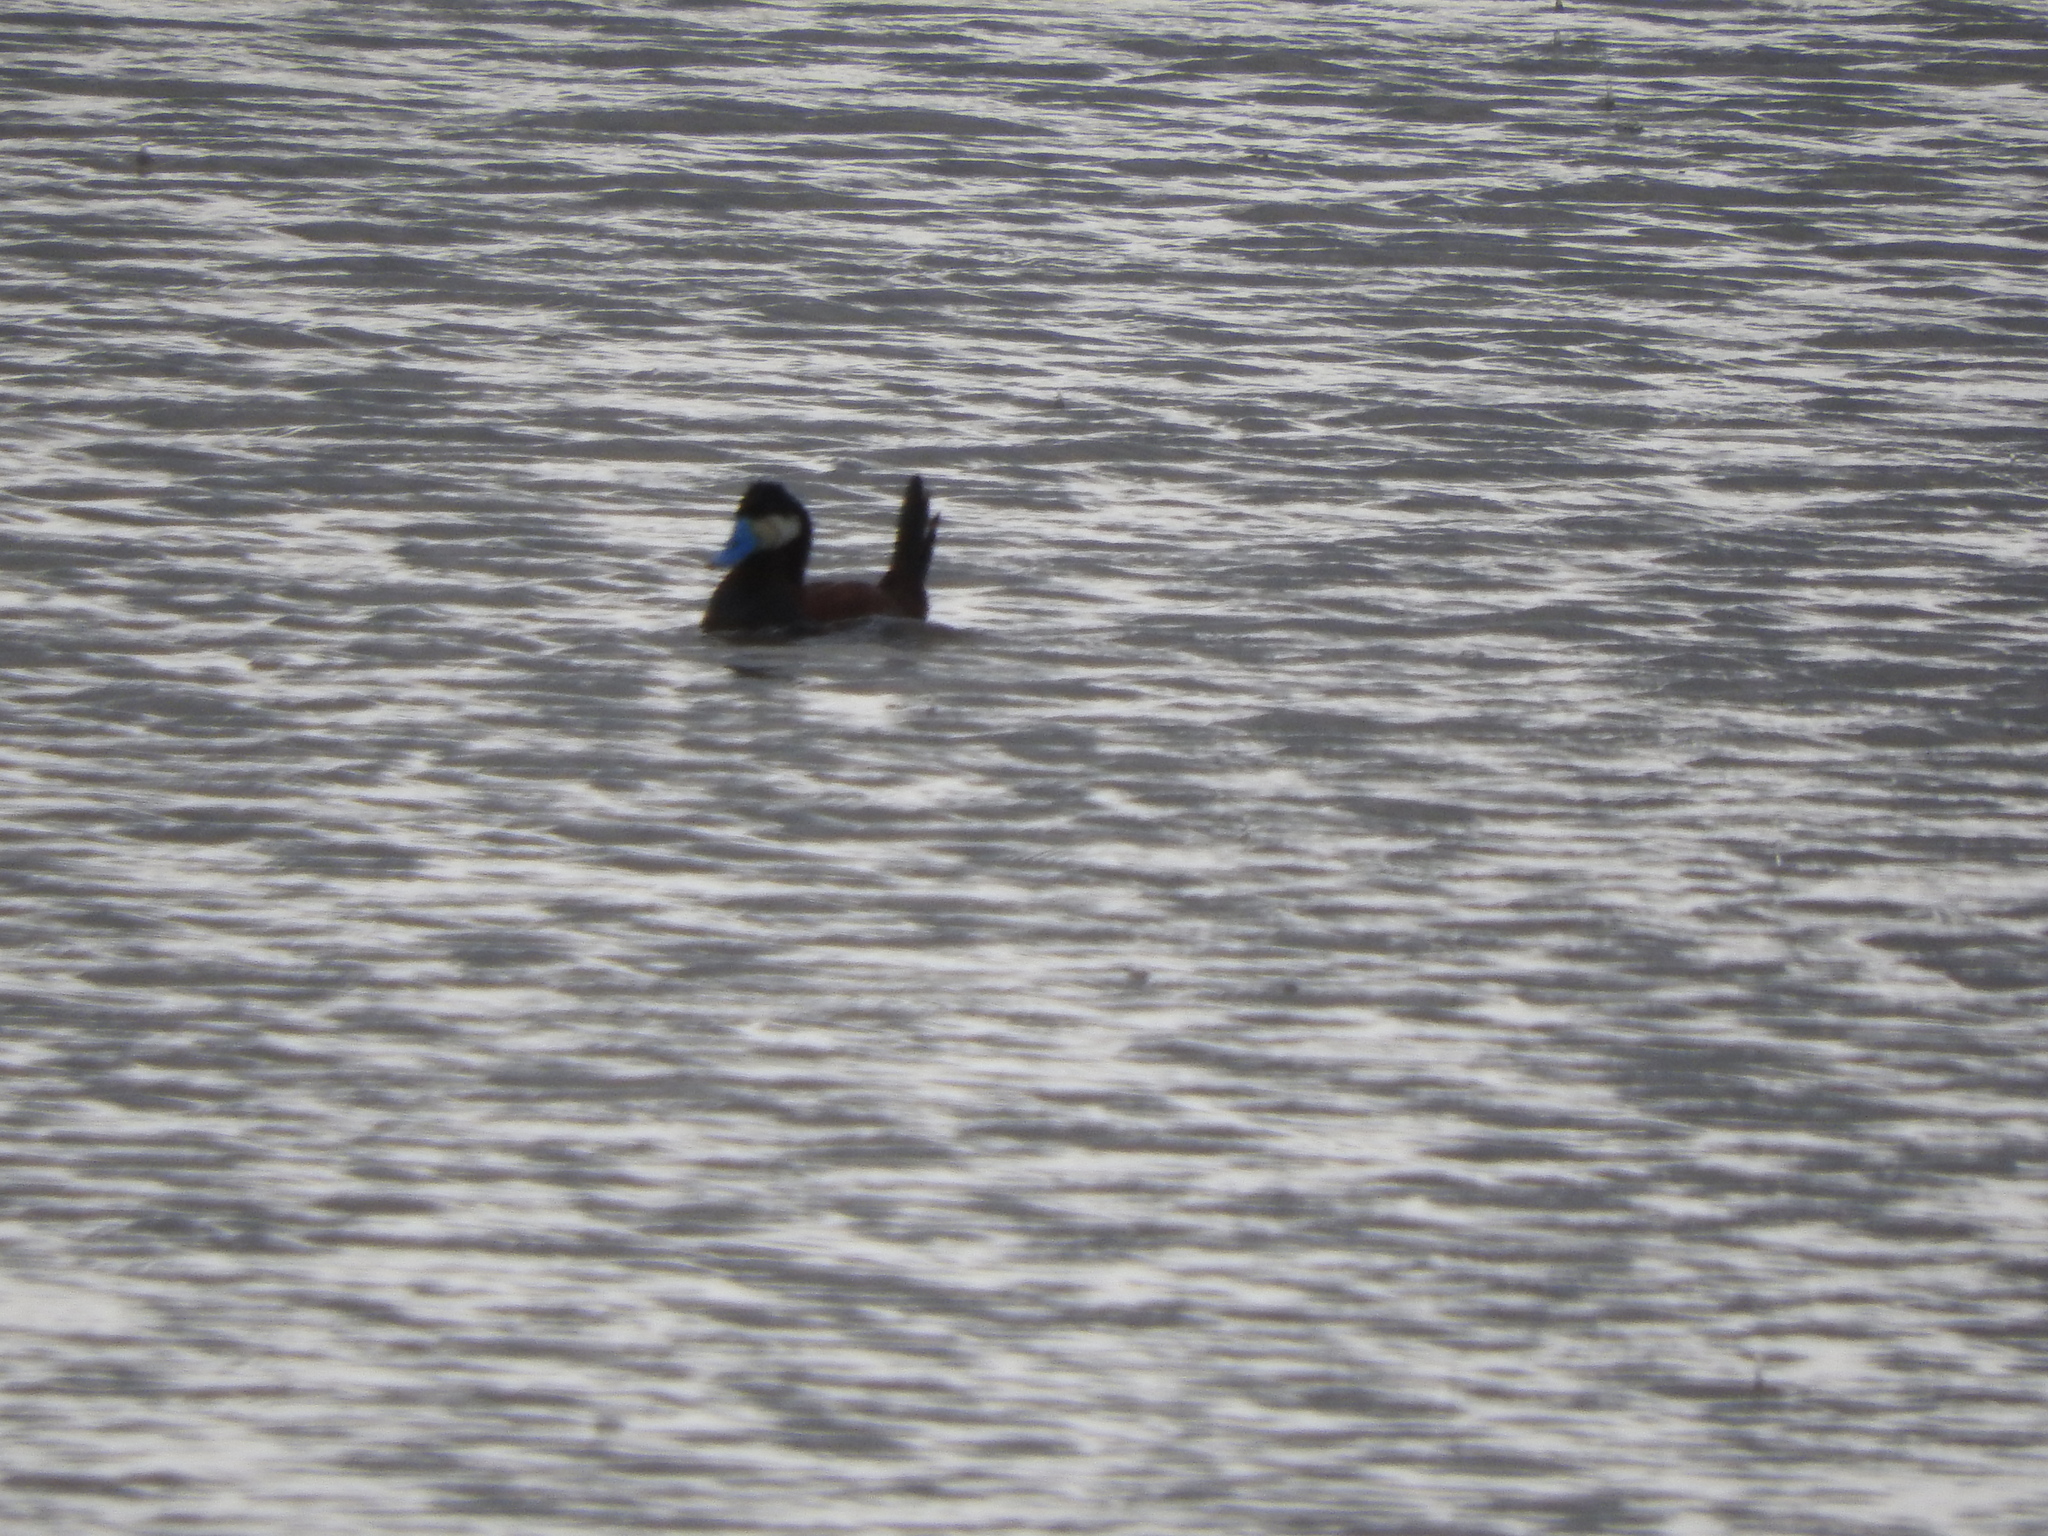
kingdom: Animalia
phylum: Chordata
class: Aves
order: Anseriformes
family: Anatidae
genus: Oxyura
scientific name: Oxyura jamaicensis
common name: Ruddy duck
